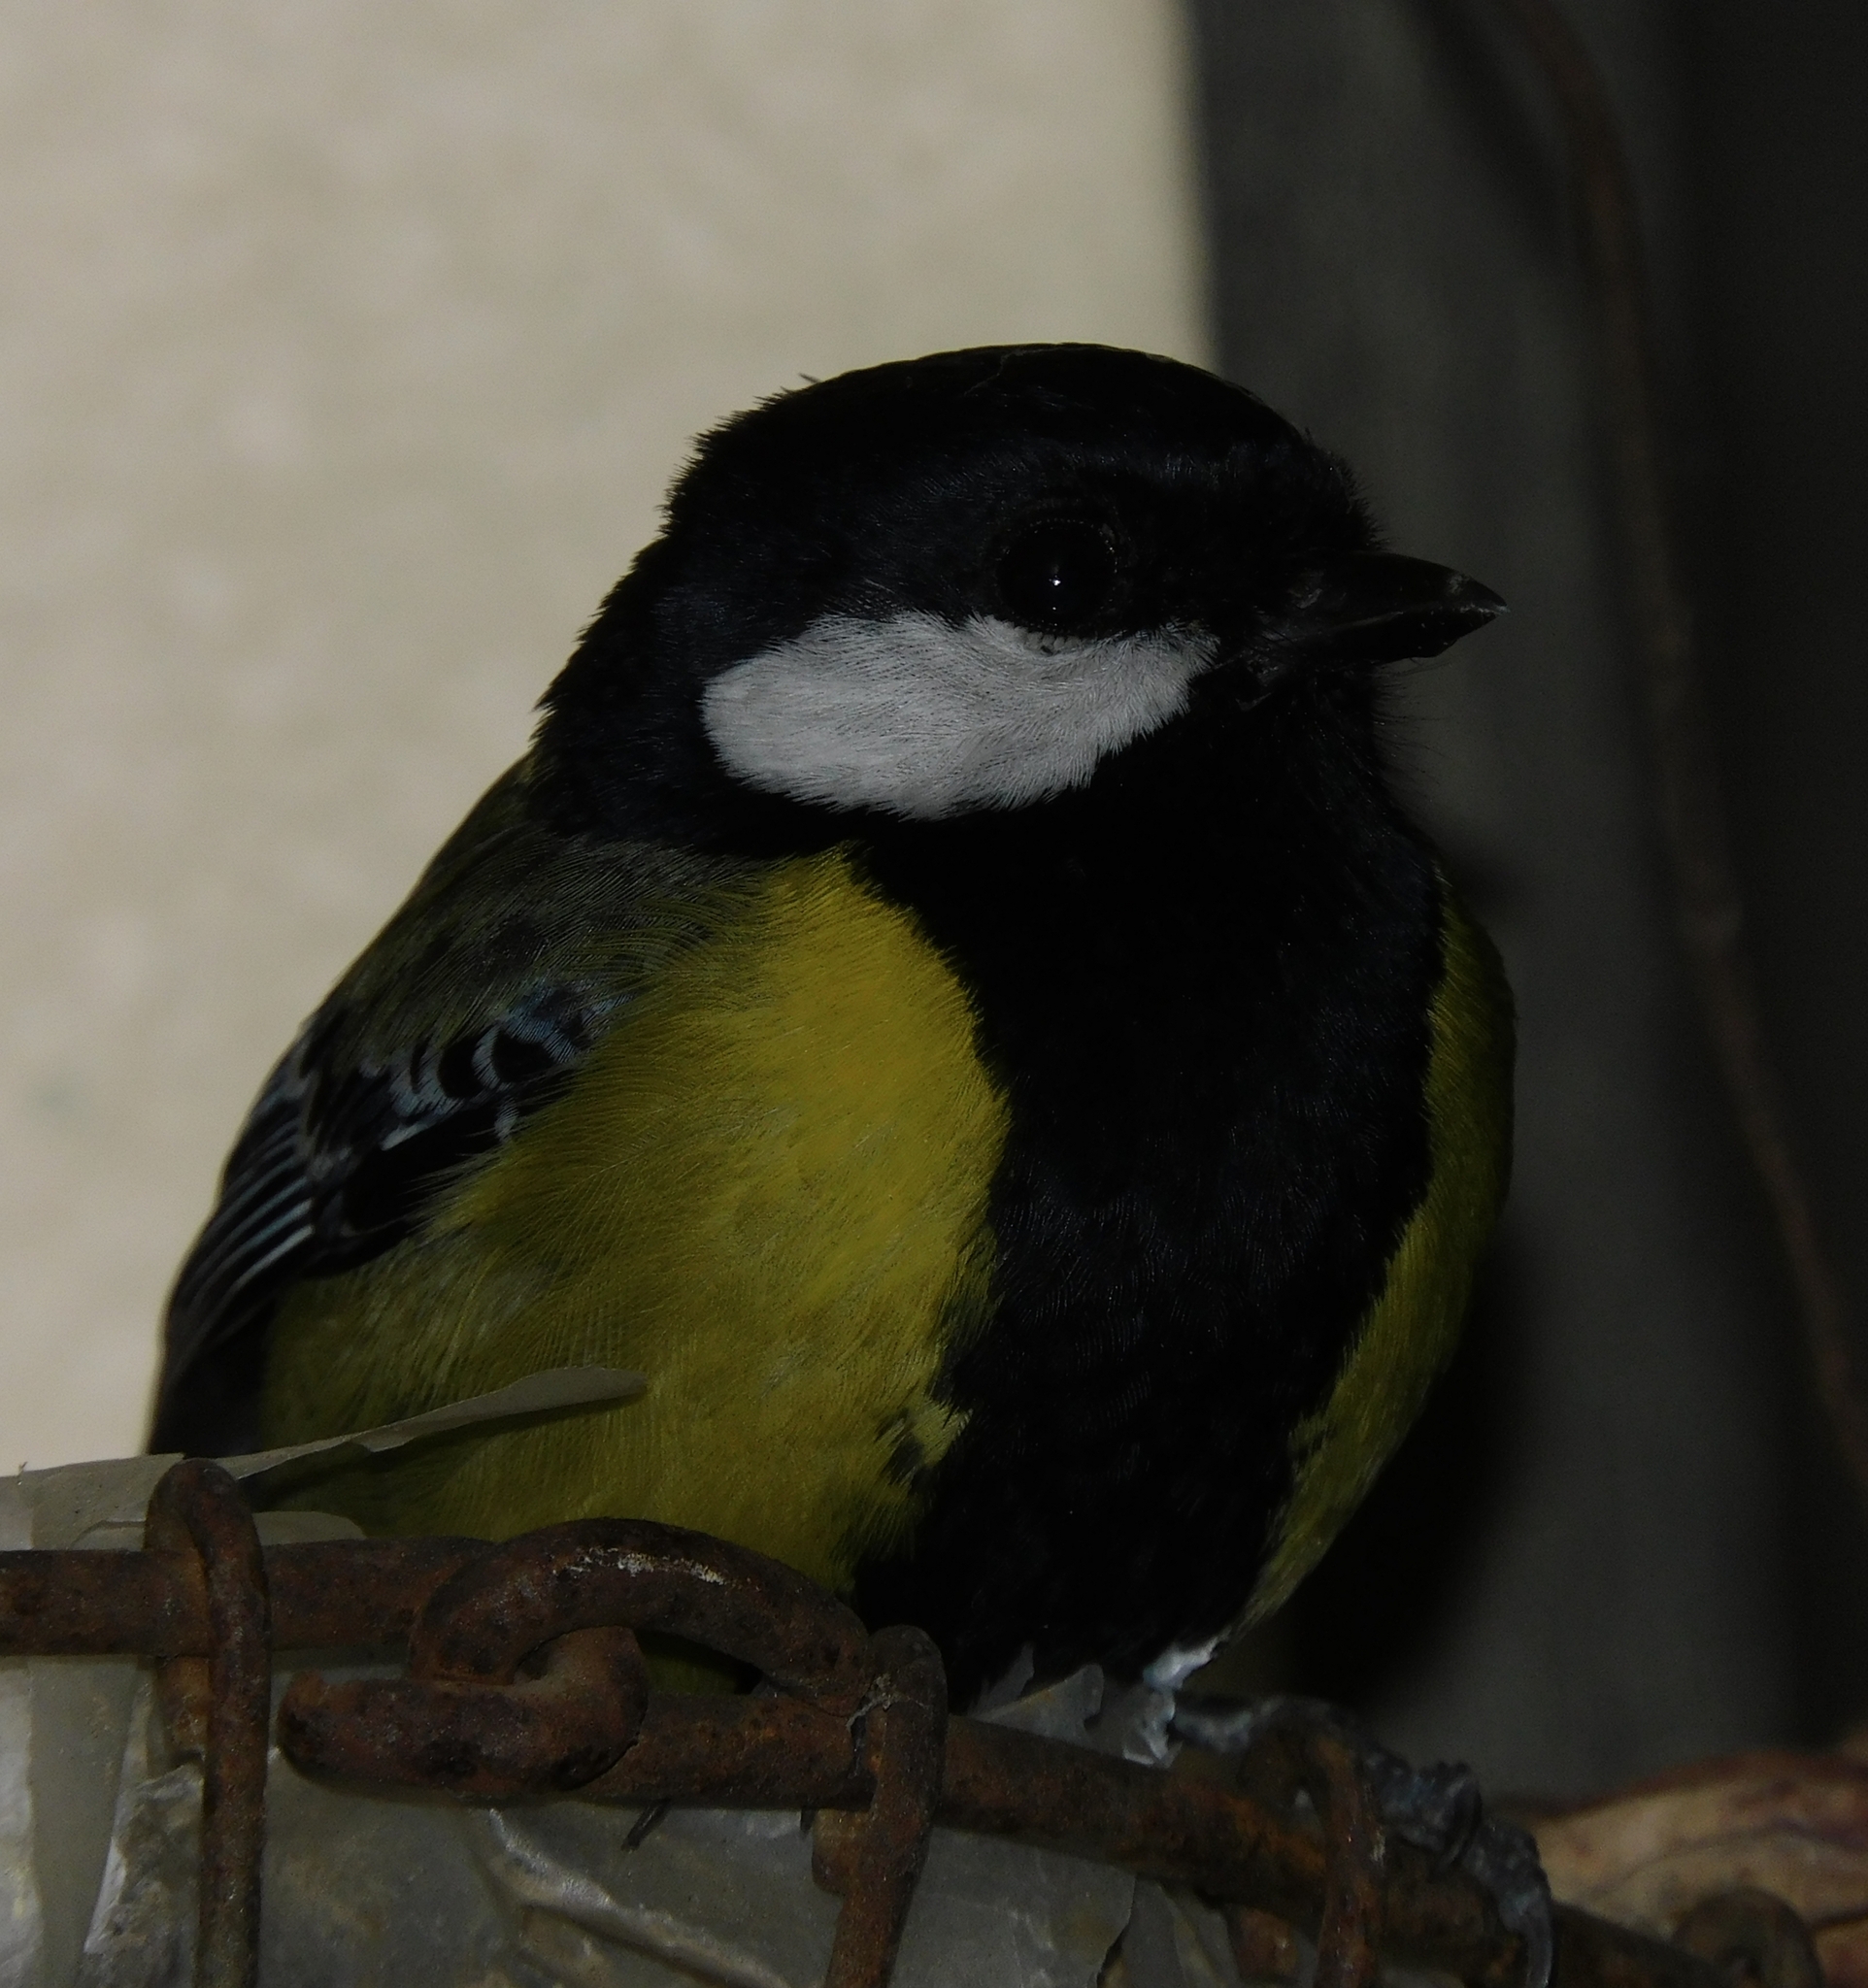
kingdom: Animalia
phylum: Chordata
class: Aves
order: Passeriformes
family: Paridae
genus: Parus
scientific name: Parus monticolus
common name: Green-backed tit
